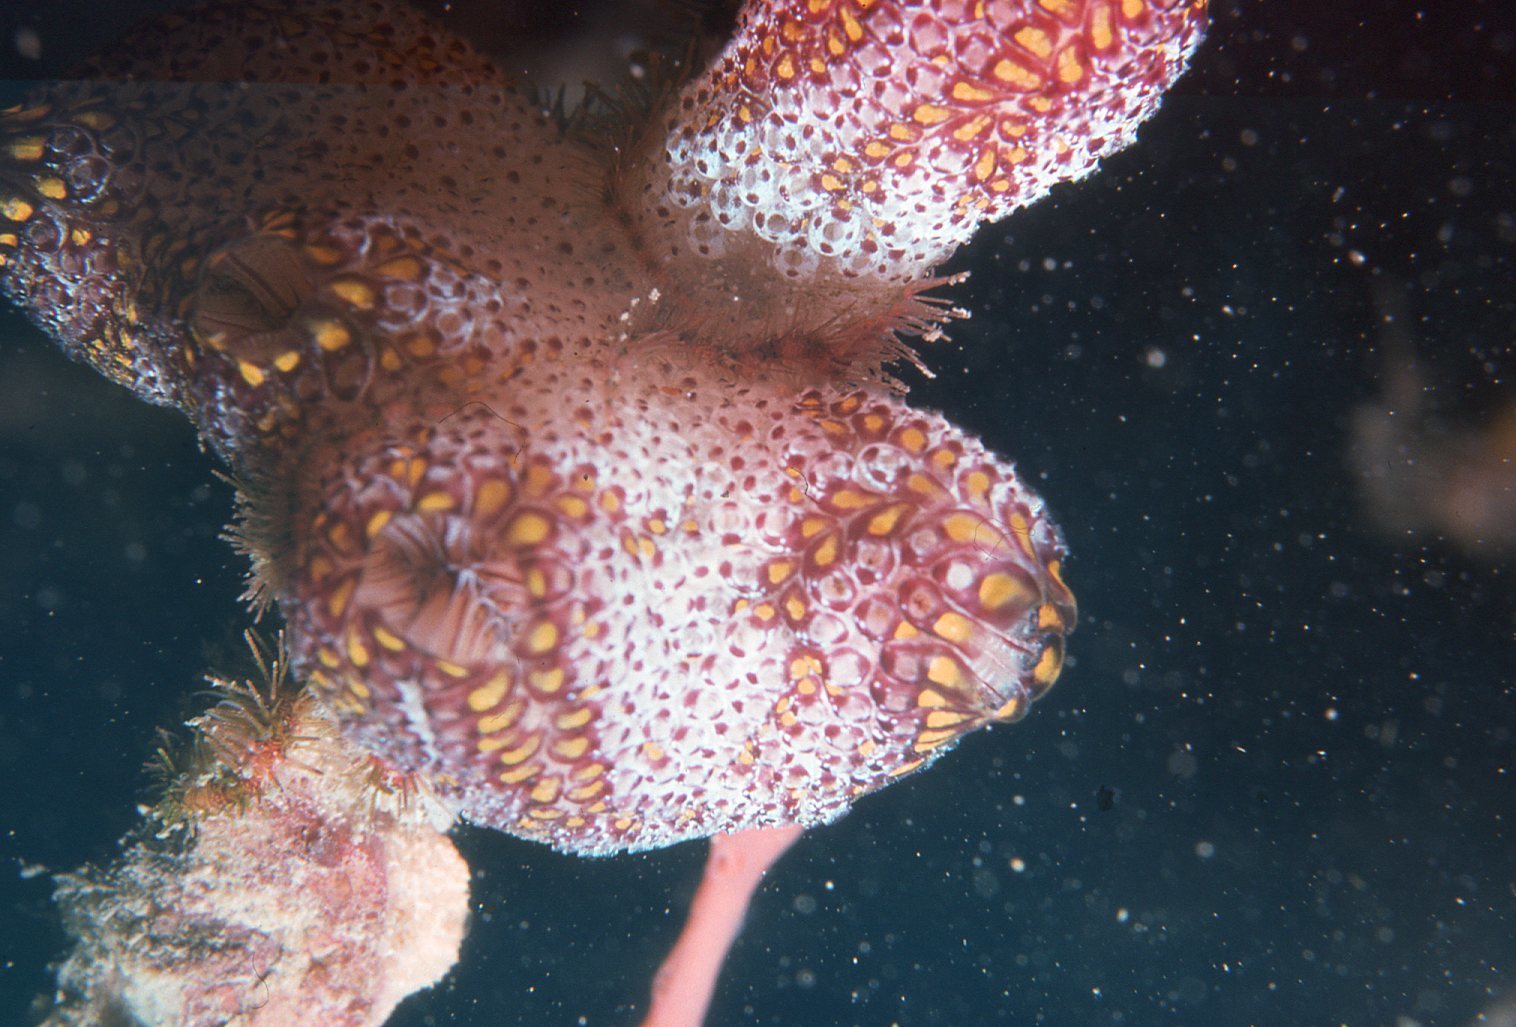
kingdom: Animalia
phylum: Chordata
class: Ascidiacea
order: Stolidobranchia
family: Styelidae
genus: Botrylloides
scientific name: Botrylloides magnicoecus
